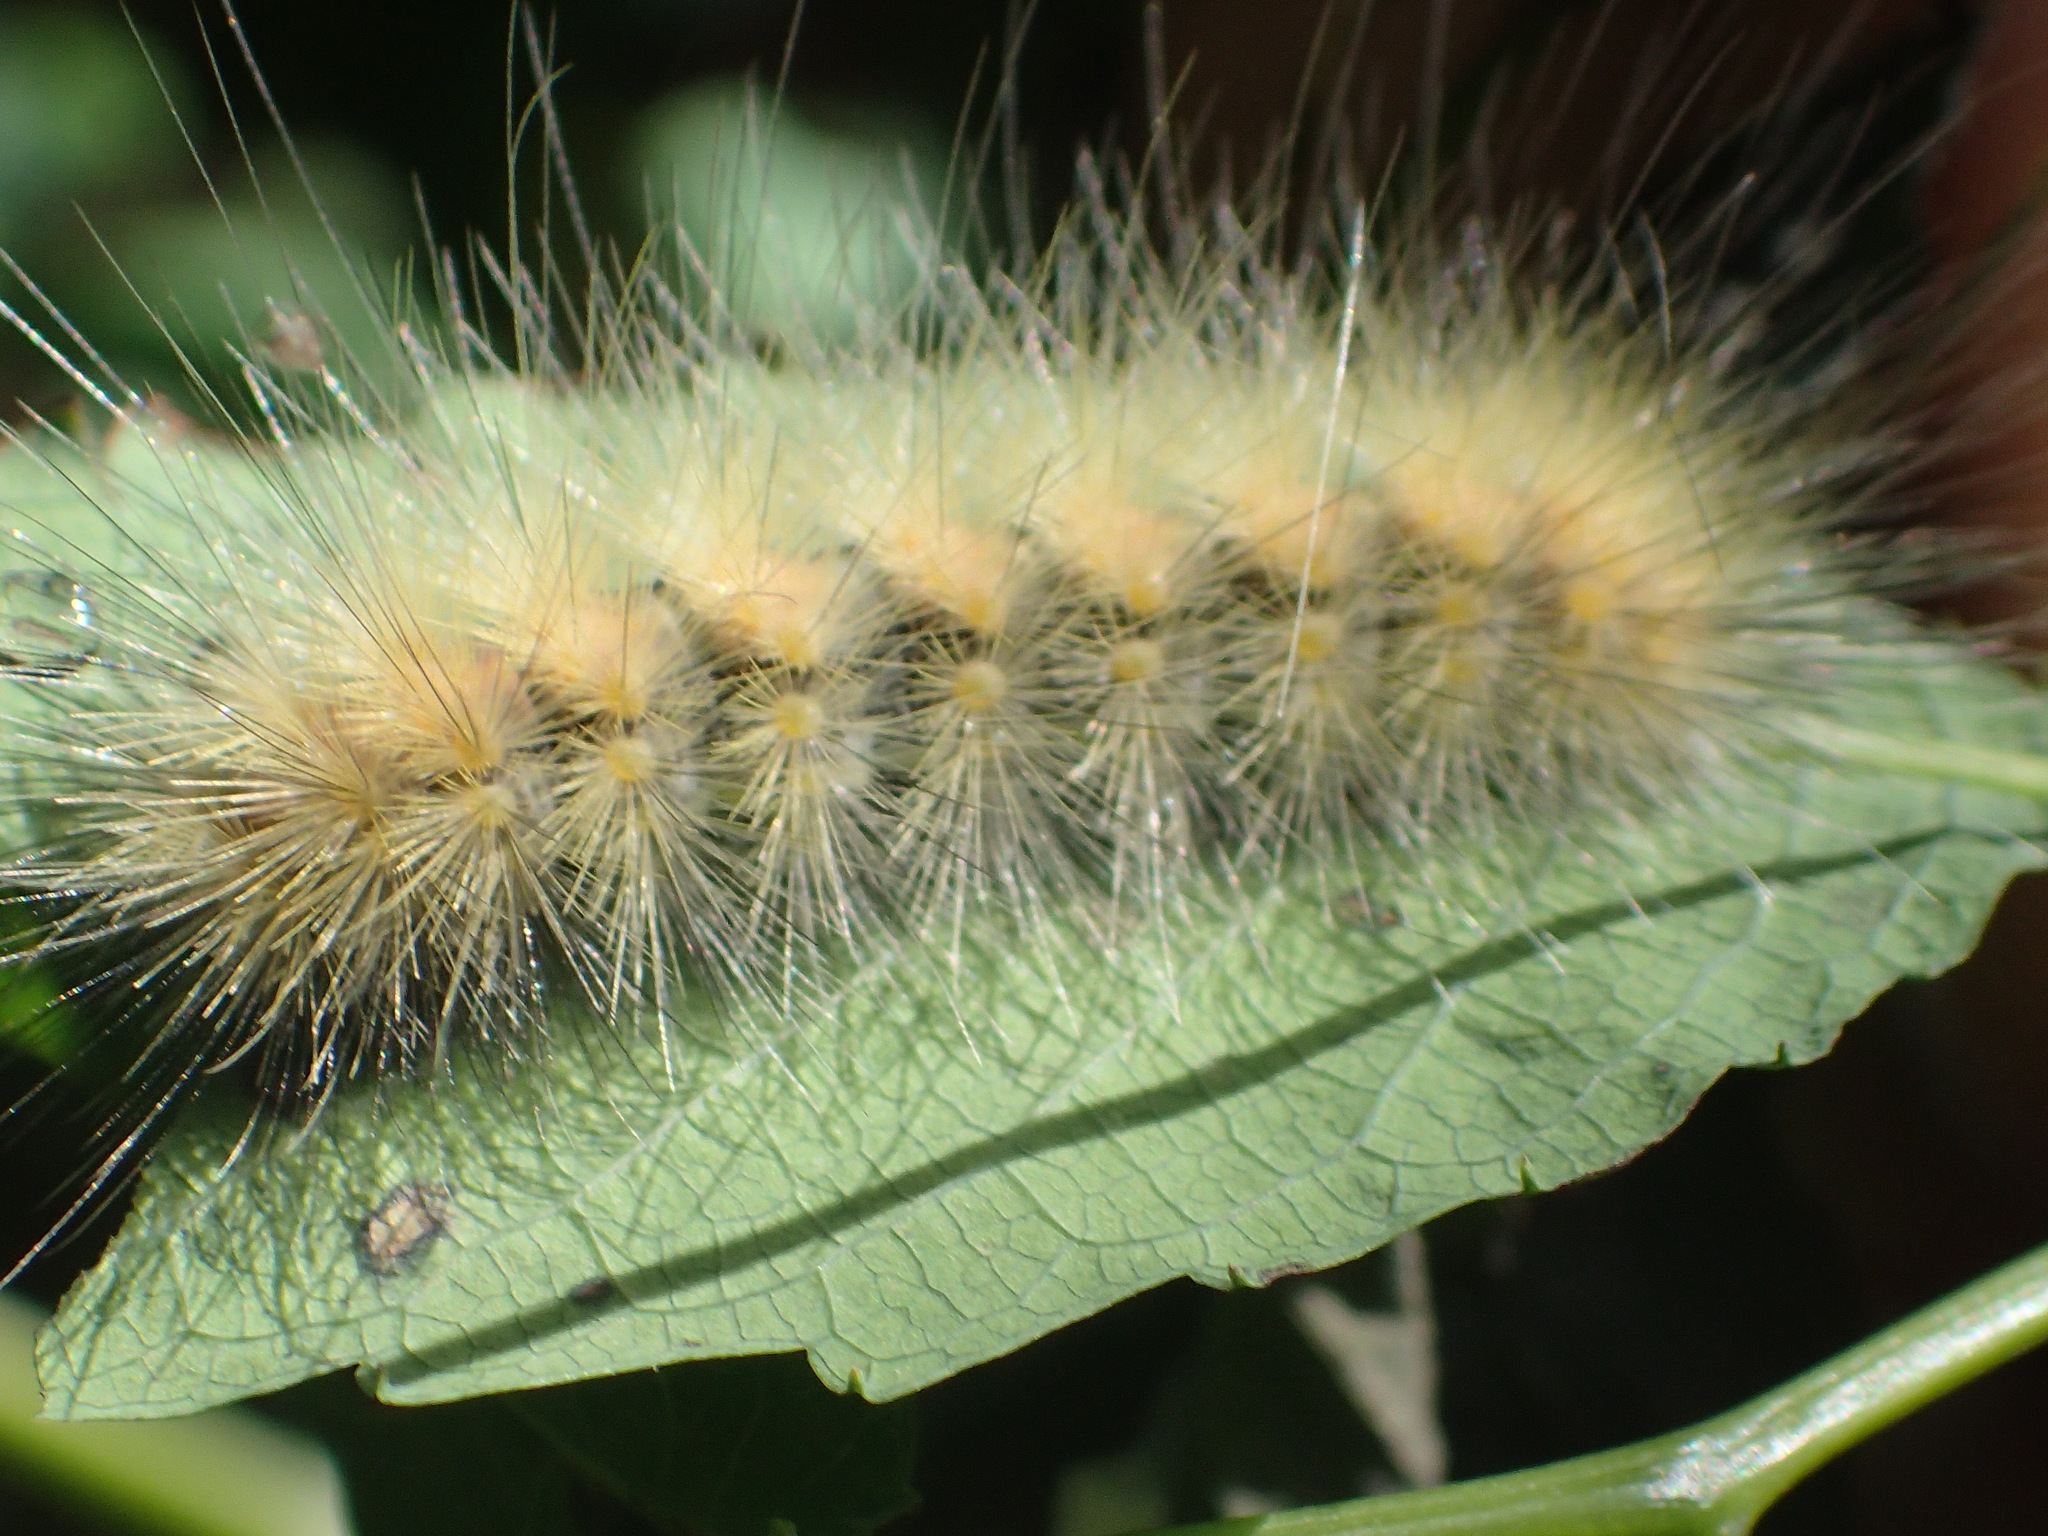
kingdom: Animalia
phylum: Arthropoda
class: Insecta
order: Lepidoptera
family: Erebidae
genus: Spilosoma
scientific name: Spilosoma virginica
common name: Virginia tiger moth
